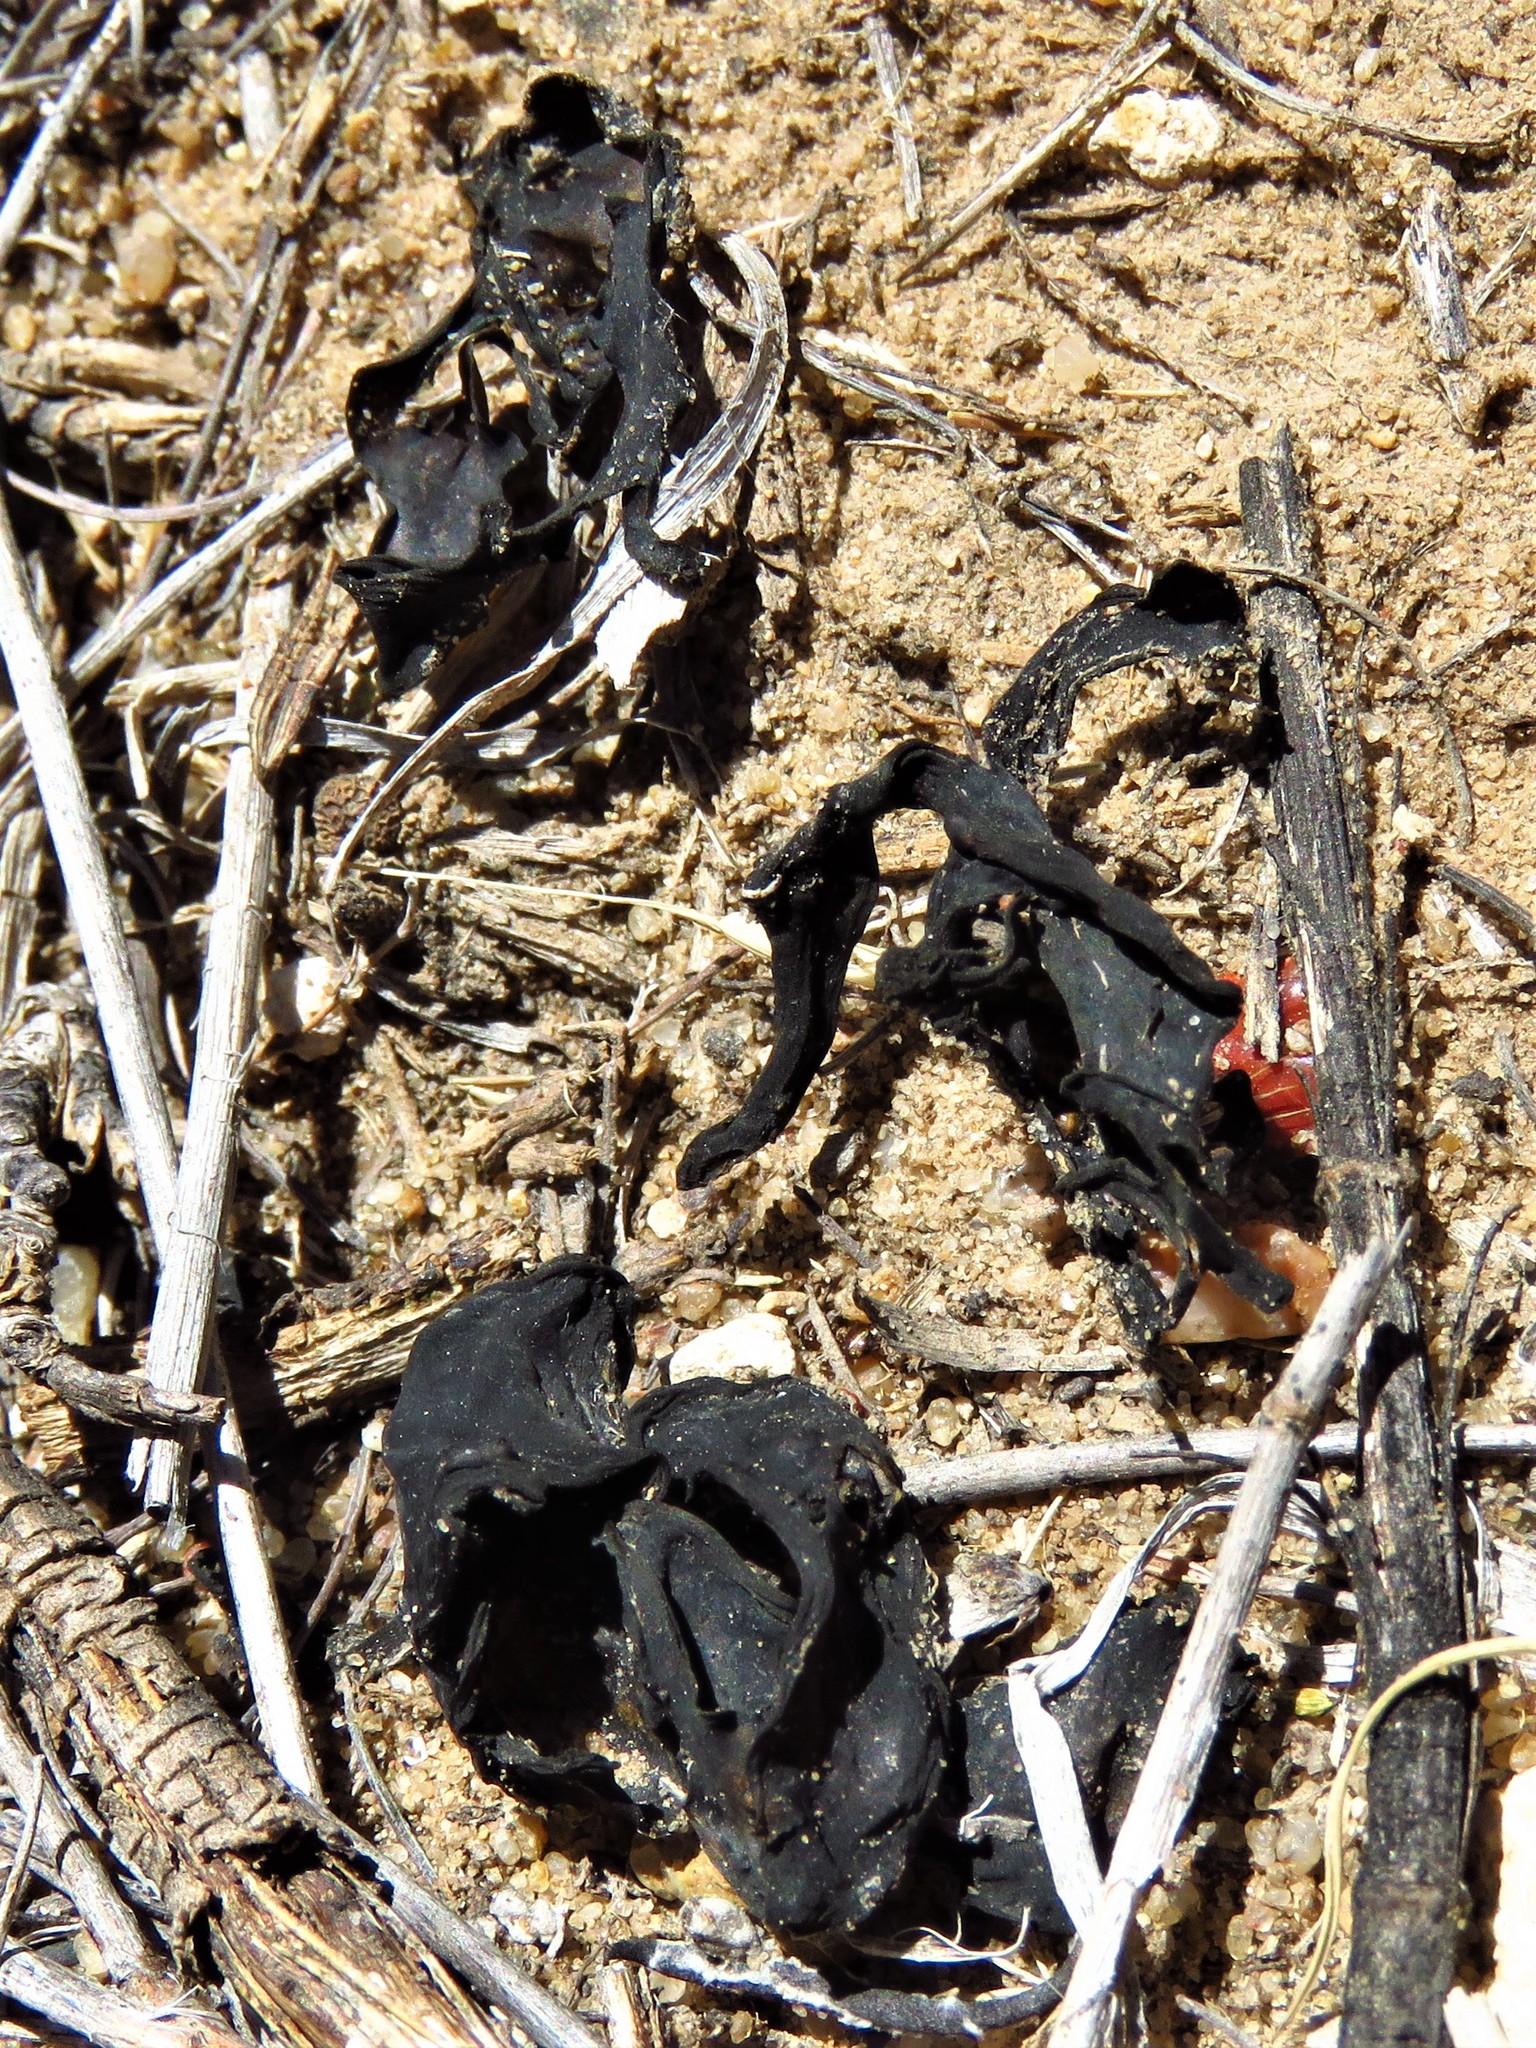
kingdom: Bacteria
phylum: Cyanobacteria
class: Cyanobacteriia
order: Cyanobacteriales
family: Nostocaceae
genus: Nostoc
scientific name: Nostoc commune
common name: Star jelly
